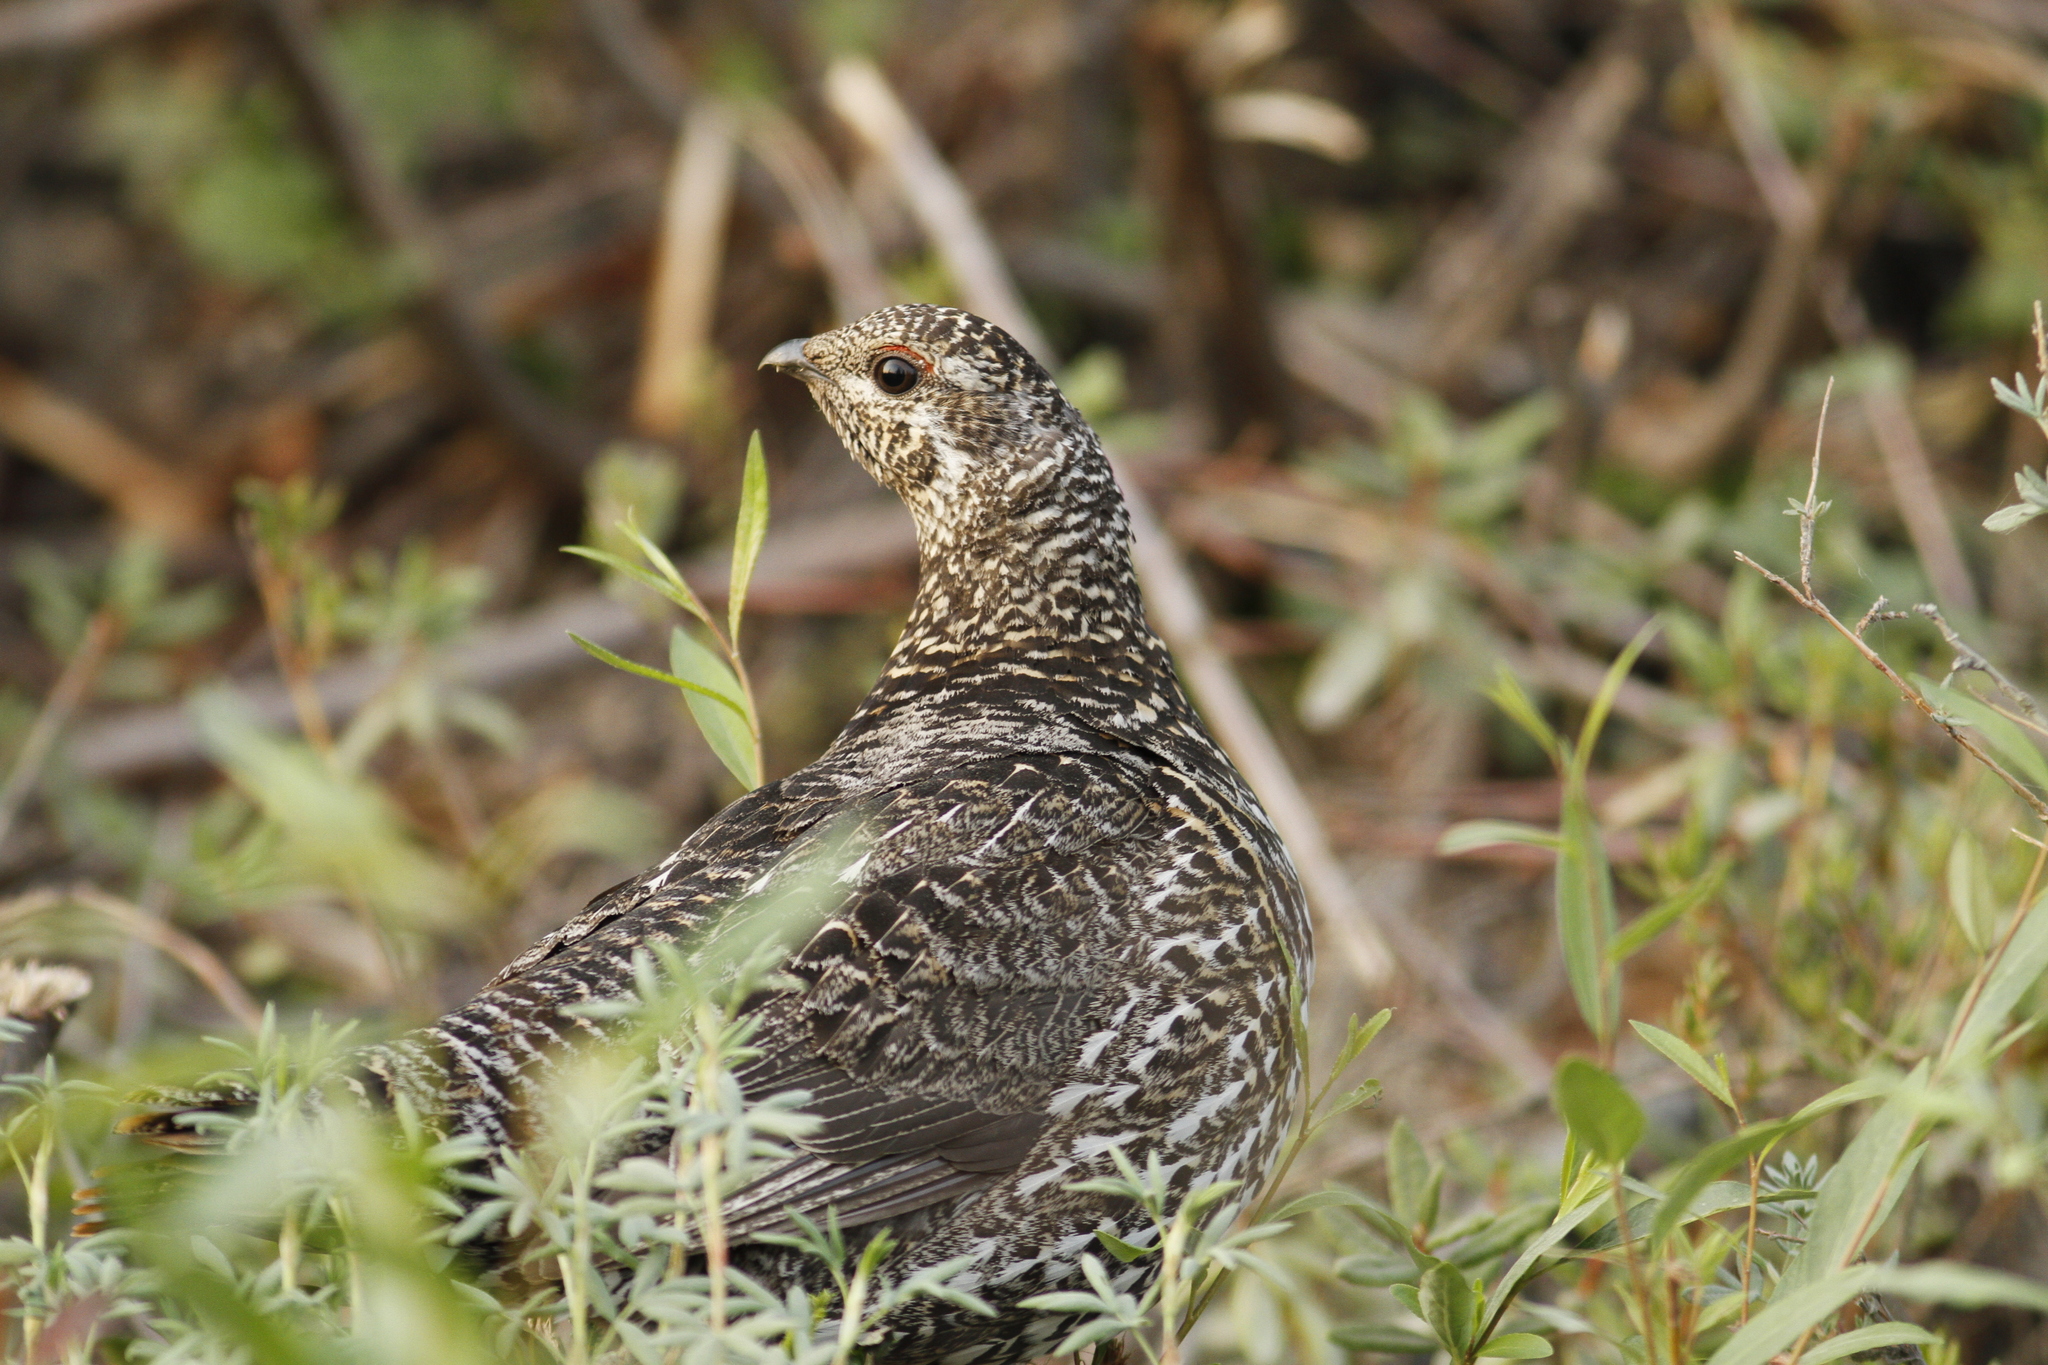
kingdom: Animalia
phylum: Chordata
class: Aves
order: Galliformes
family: Phasianidae
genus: Canachites
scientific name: Canachites canadensis
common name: Spruce grouse
